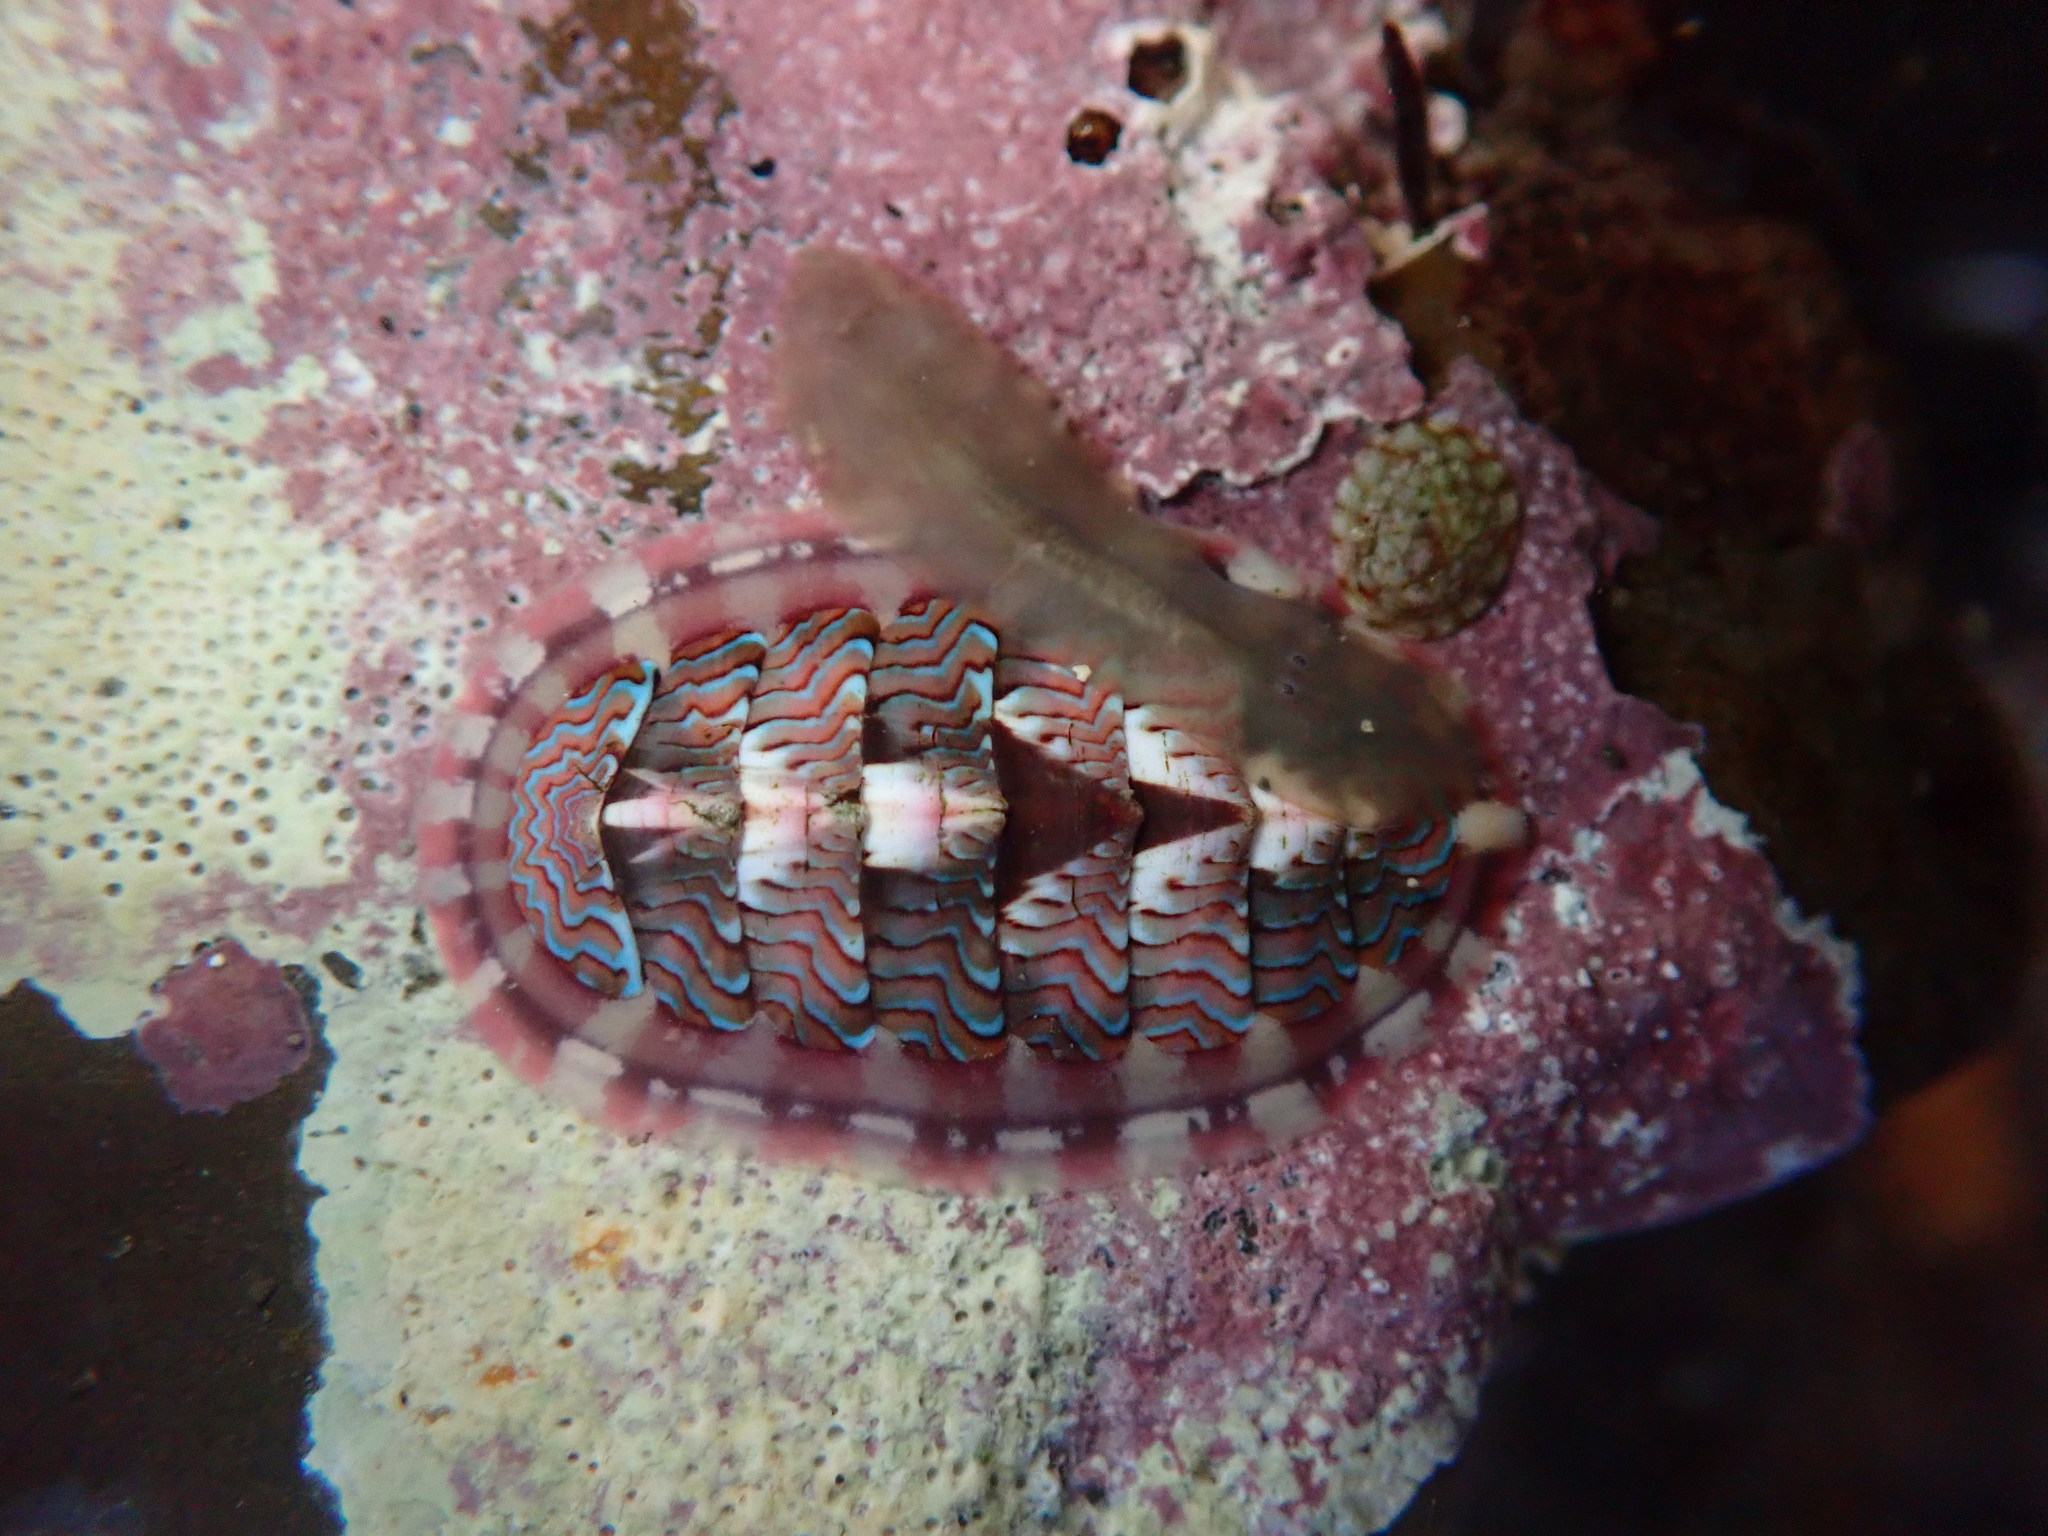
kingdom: Animalia
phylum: Mollusca
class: Polyplacophora
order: Chitonida
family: Tonicellidae
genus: Tonicella
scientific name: Tonicella lokii
